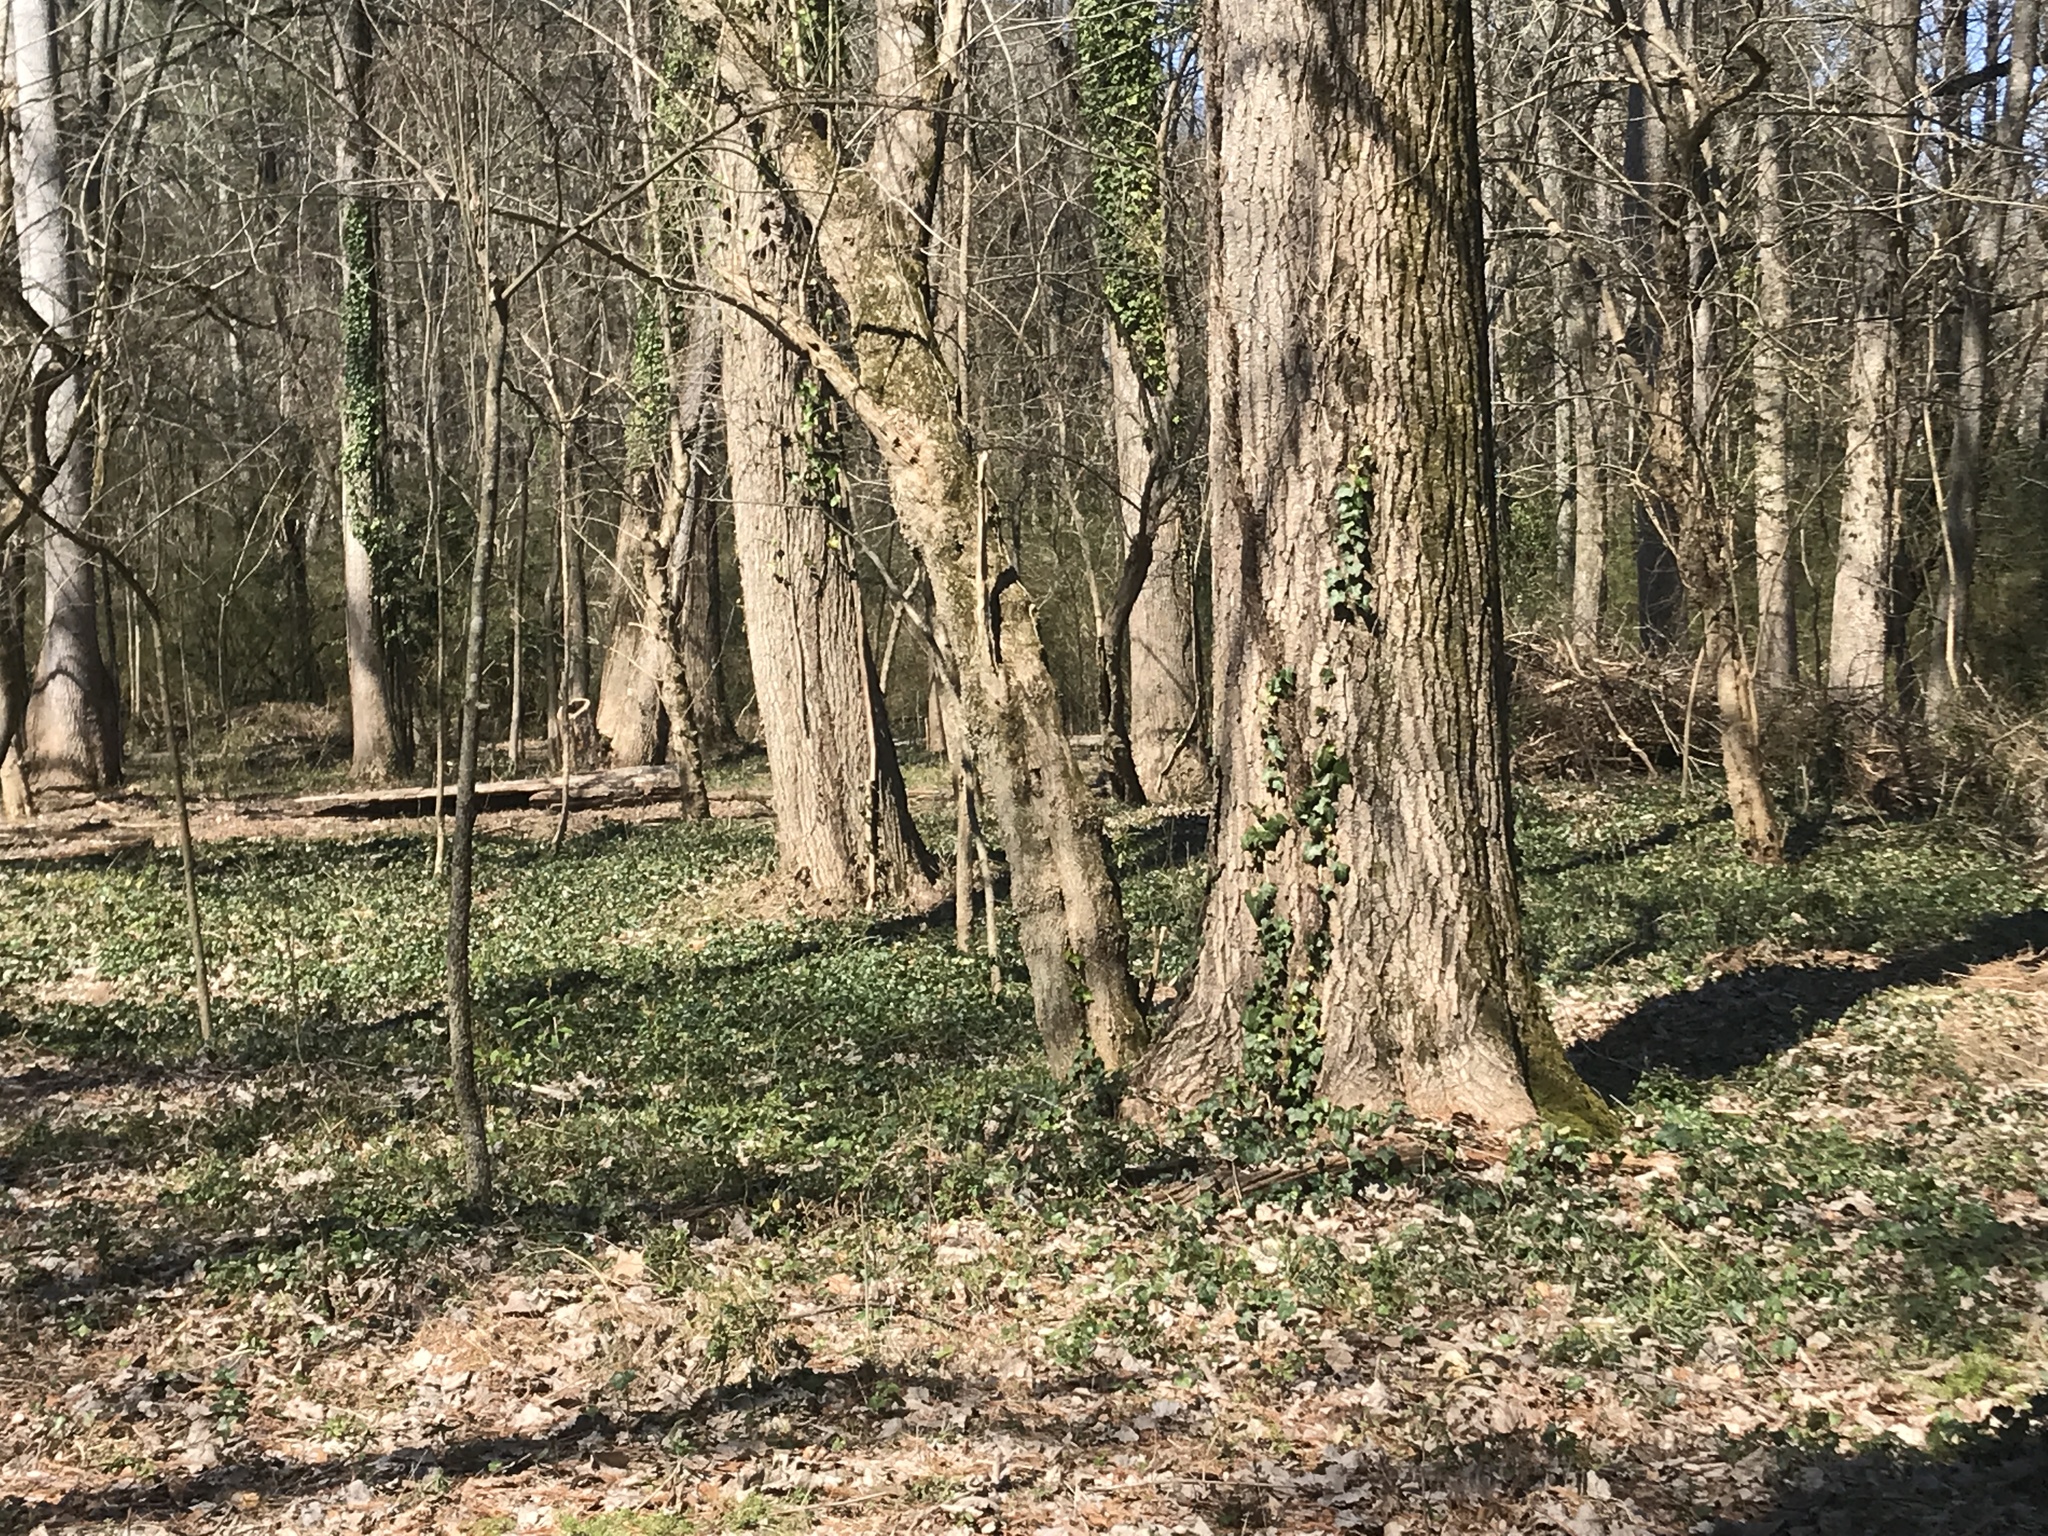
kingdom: Plantae
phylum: Tracheophyta
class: Magnoliopsida
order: Apiales
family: Araliaceae
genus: Hedera
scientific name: Hedera helix
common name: Ivy
